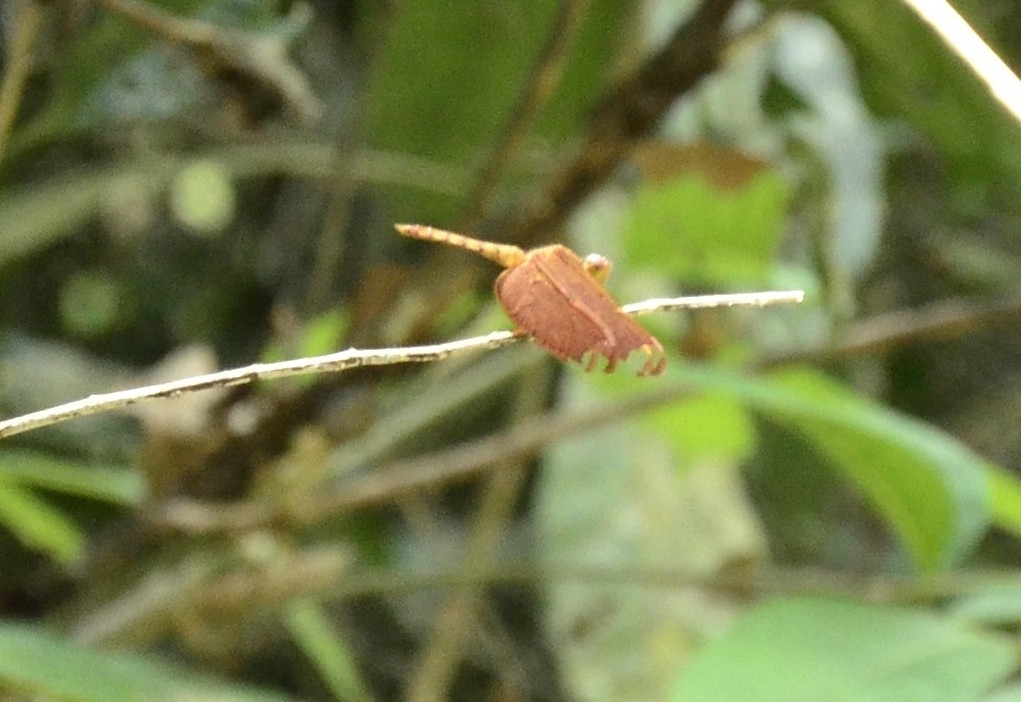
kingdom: Animalia
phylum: Arthropoda
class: Insecta
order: Odonata
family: Libellulidae
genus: Neurothemis
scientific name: Neurothemis fulvia
